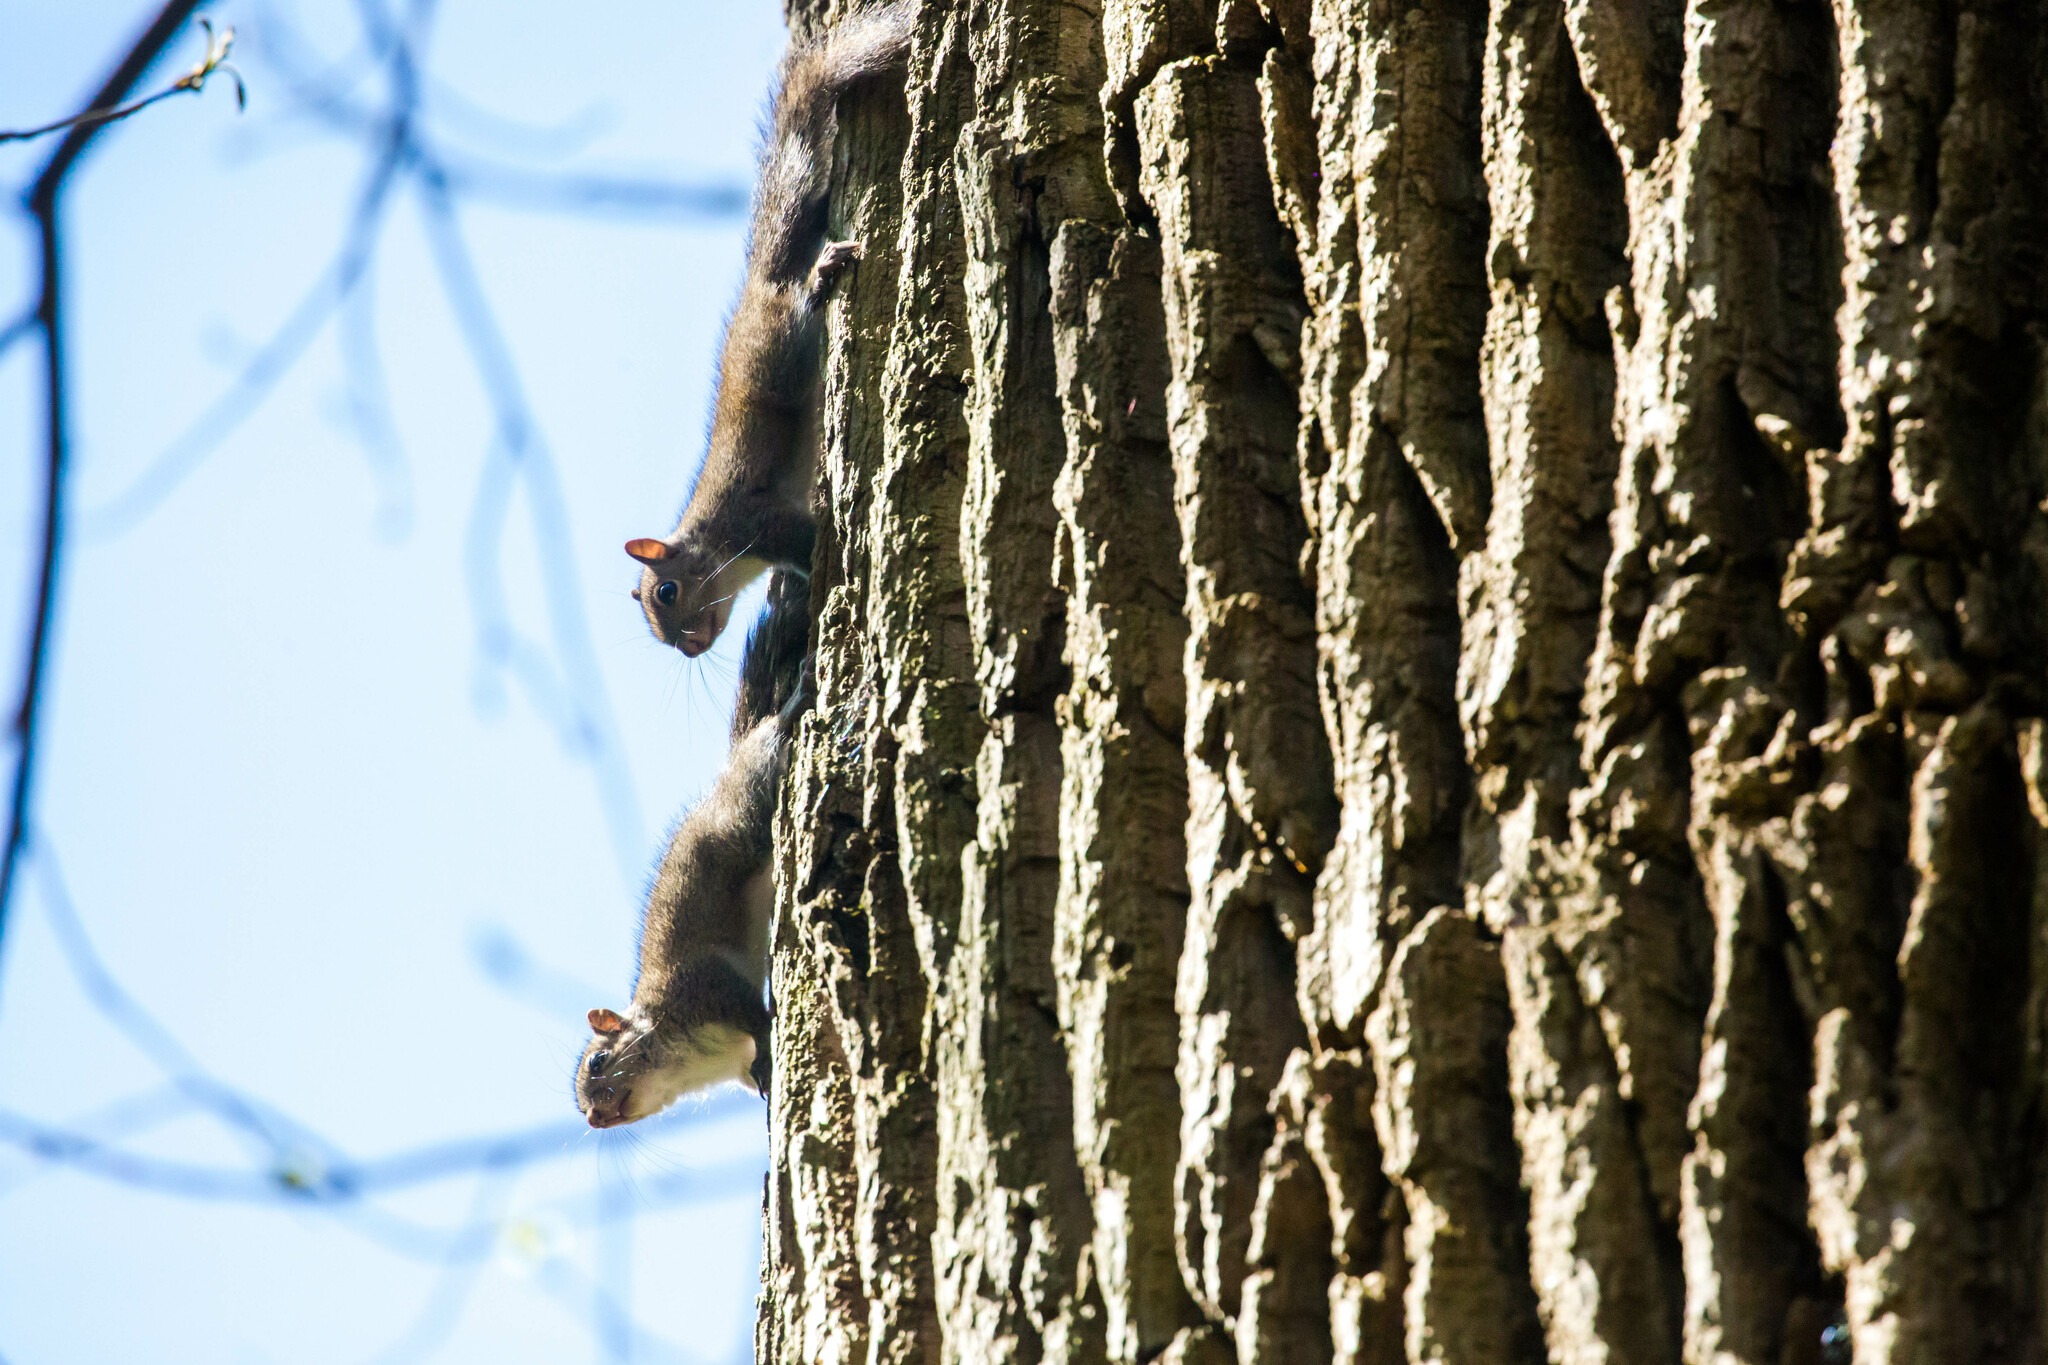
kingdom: Animalia
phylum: Chordata
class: Mammalia
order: Rodentia
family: Sciuridae
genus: Sciurus
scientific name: Sciurus carolinensis
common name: Eastern gray squirrel
